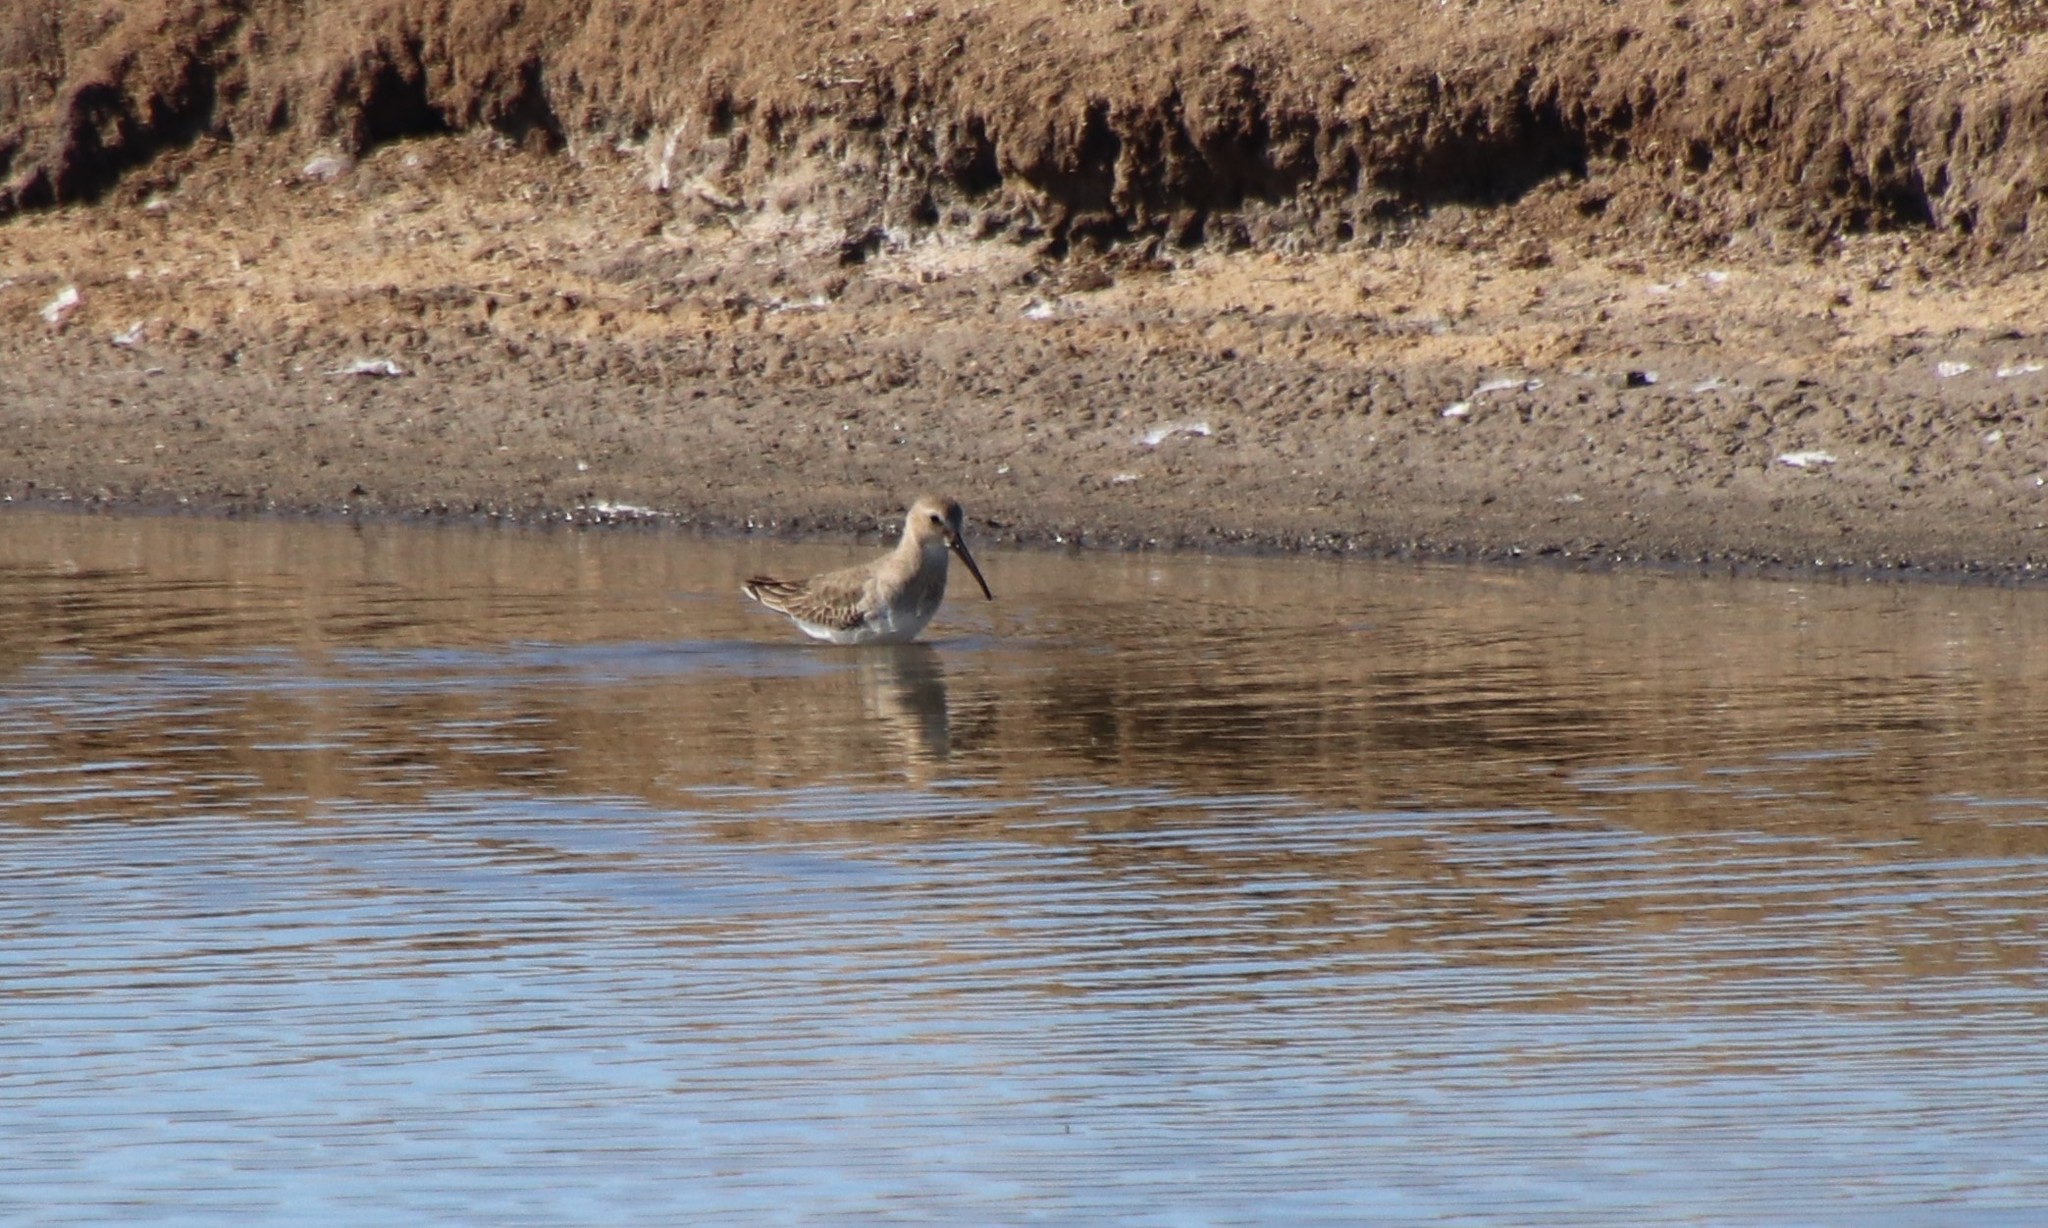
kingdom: Animalia
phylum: Chordata
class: Aves
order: Charadriiformes
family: Scolopacidae
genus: Calidris
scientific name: Calidris alpina
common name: Dunlin
